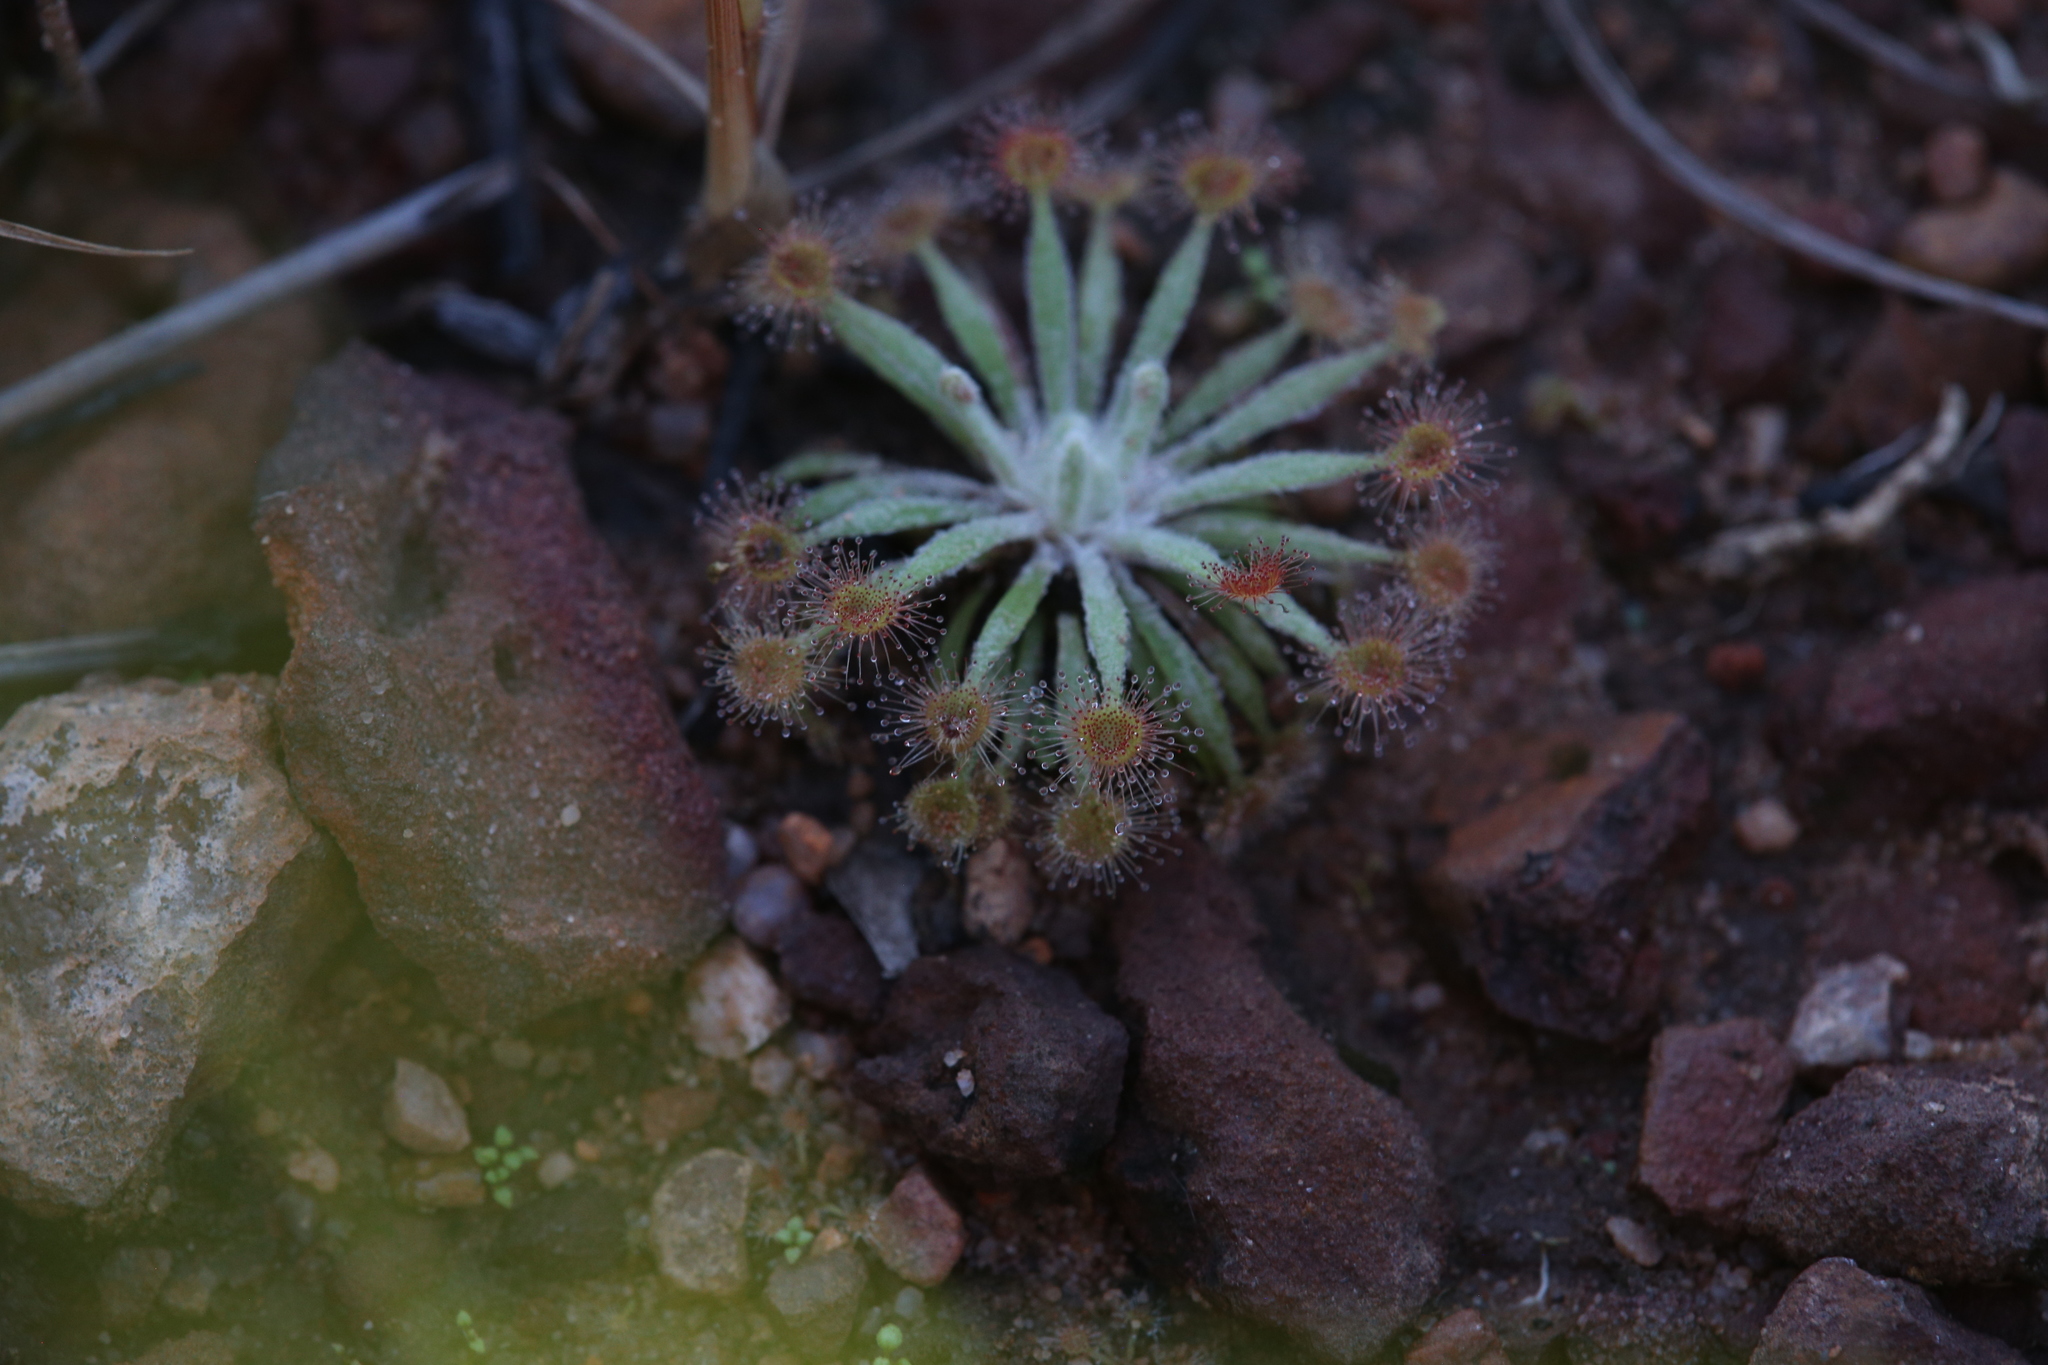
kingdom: Plantae
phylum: Tracheophyta
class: Magnoliopsida
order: Caryophyllales
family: Droseraceae
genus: Drosera
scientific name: Drosera ordensis
